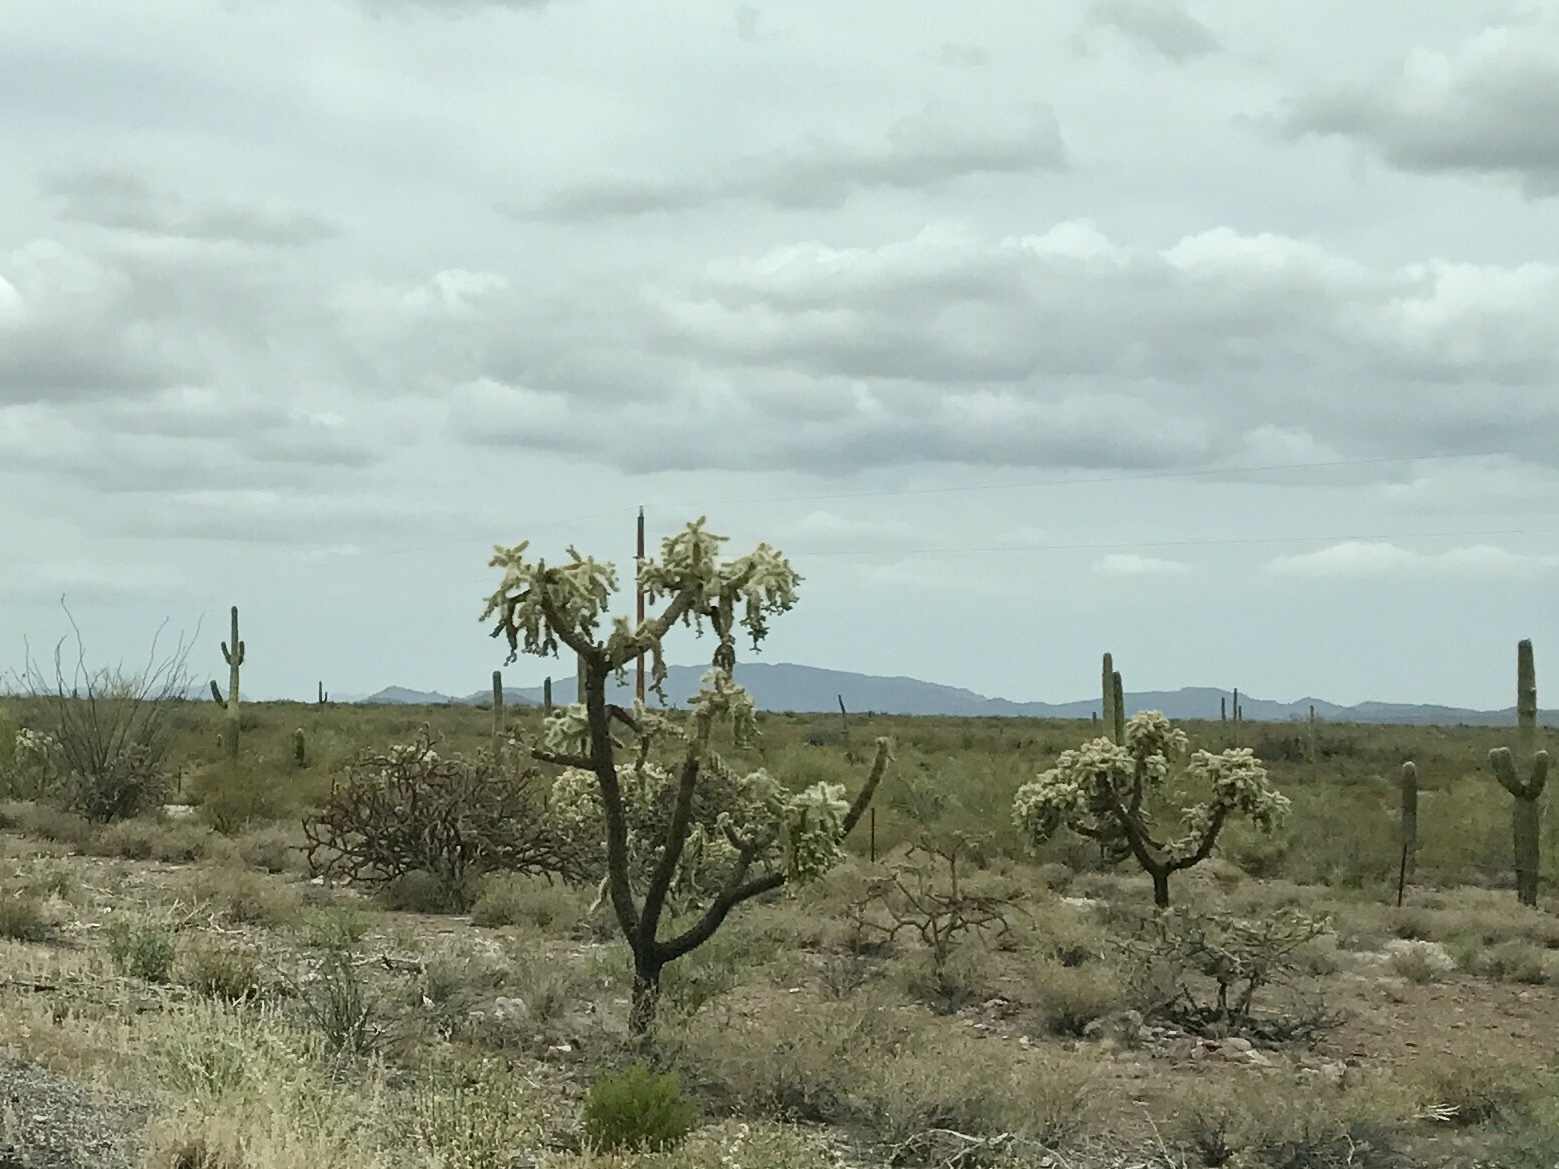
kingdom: Plantae
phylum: Tracheophyta
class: Magnoliopsida
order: Caryophyllales
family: Cactaceae
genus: Cylindropuntia
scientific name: Cylindropuntia fulgida
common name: Jumping cholla
